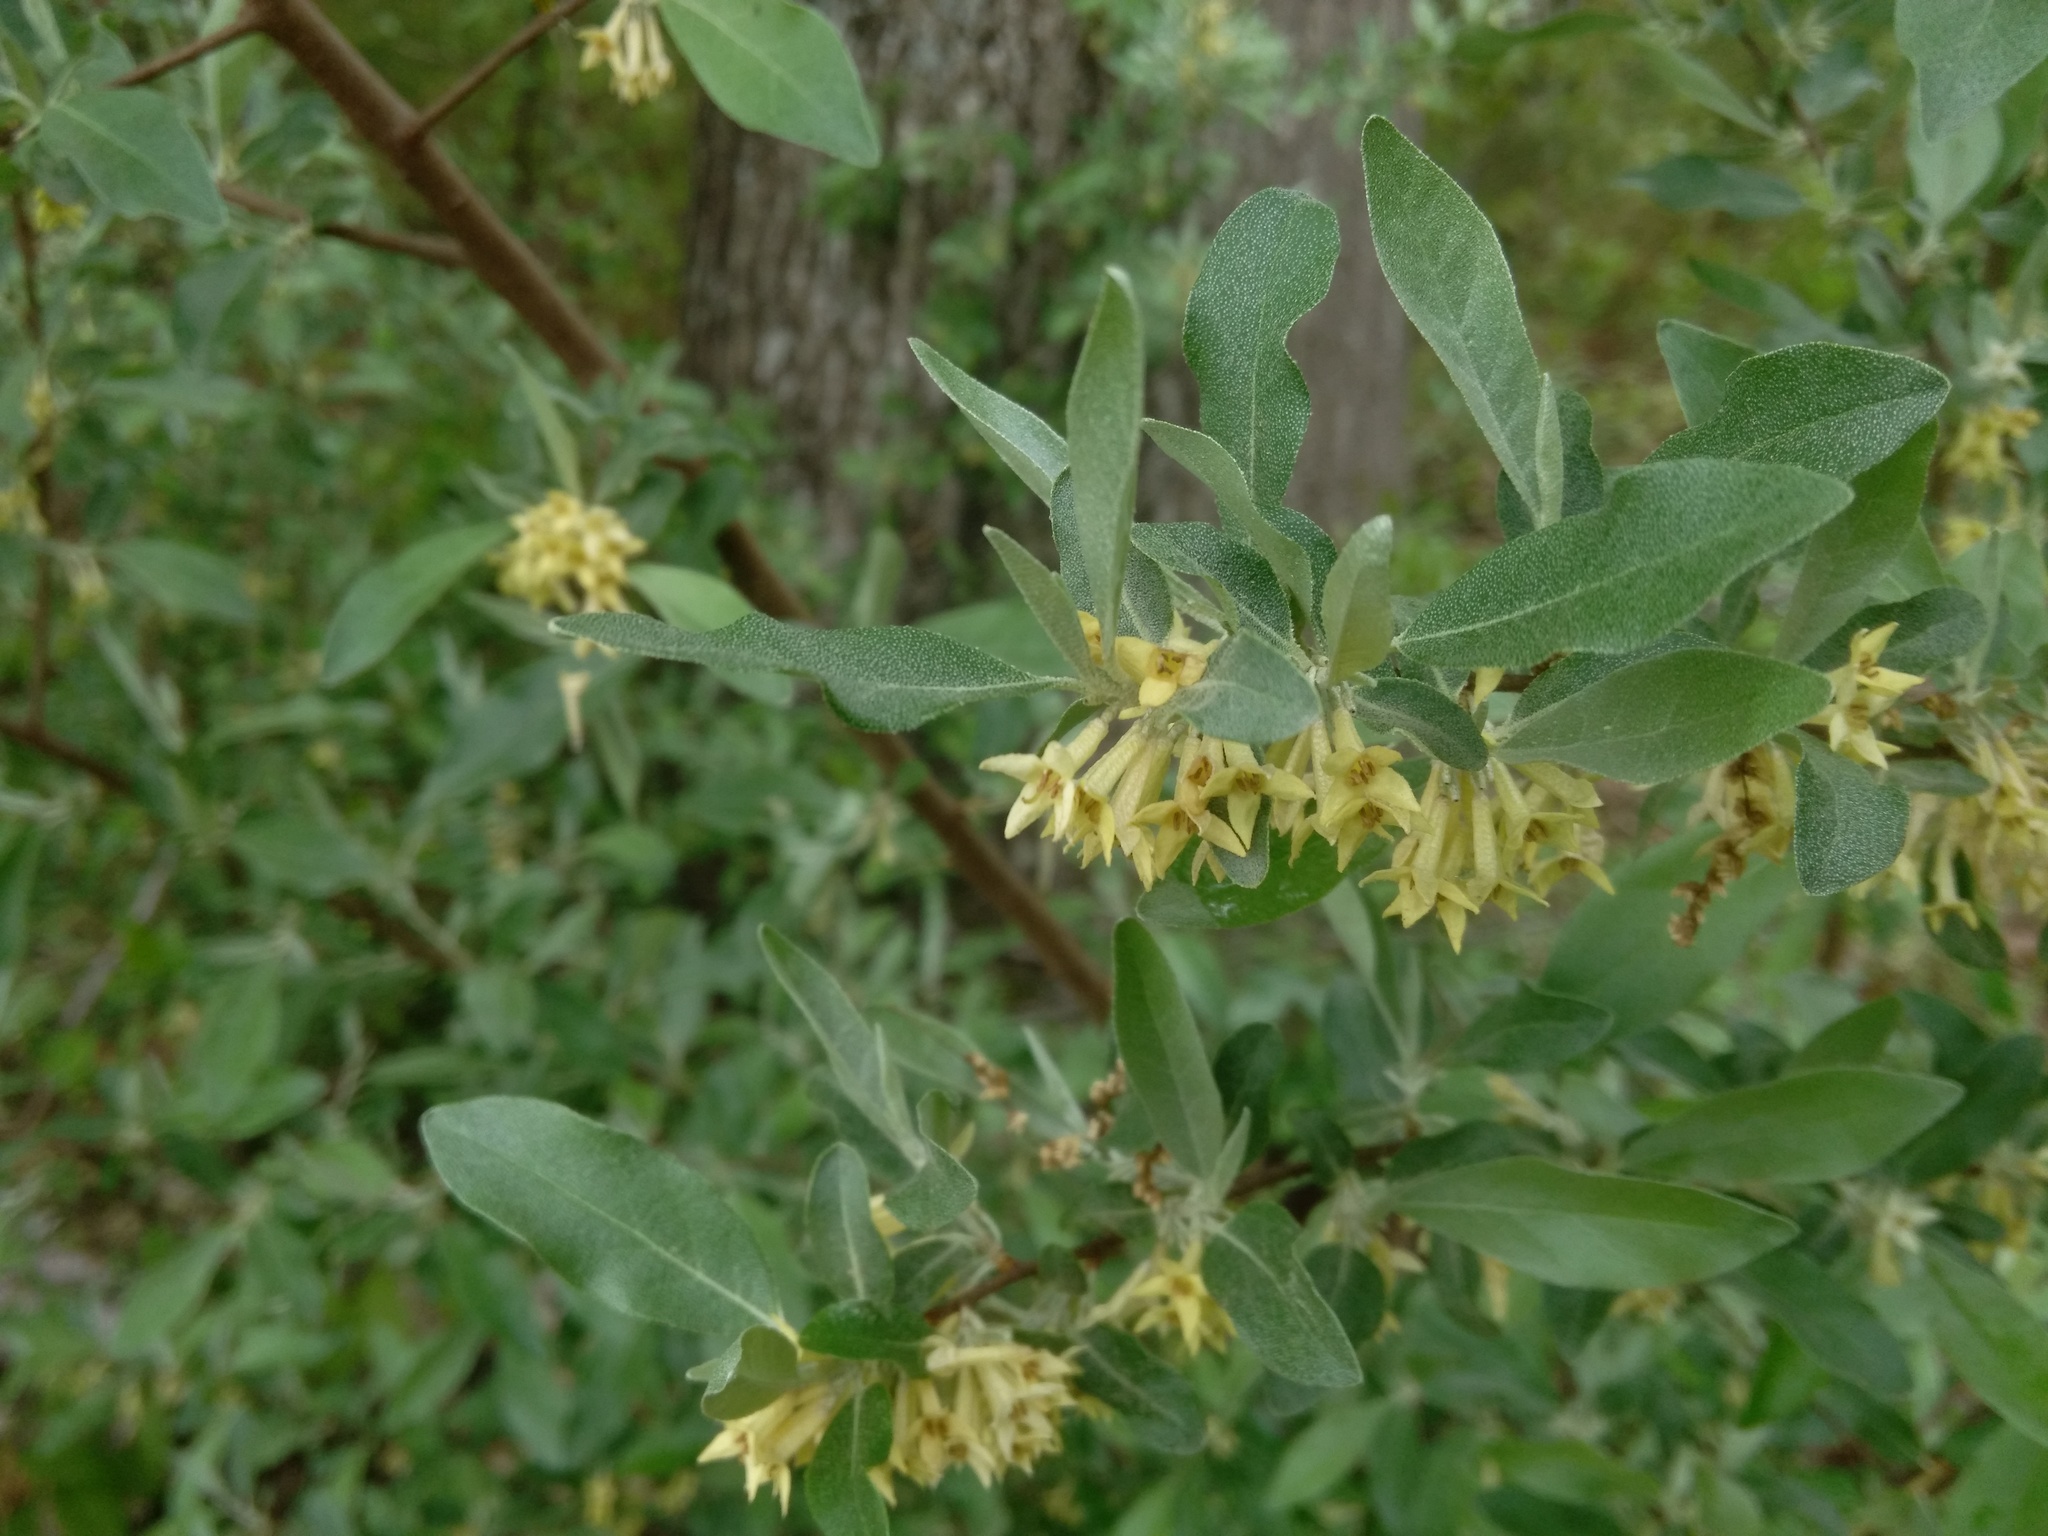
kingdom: Plantae
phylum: Tracheophyta
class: Magnoliopsida
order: Rosales
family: Elaeagnaceae
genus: Elaeagnus
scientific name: Elaeagnus umbellata
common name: Autumn olive
